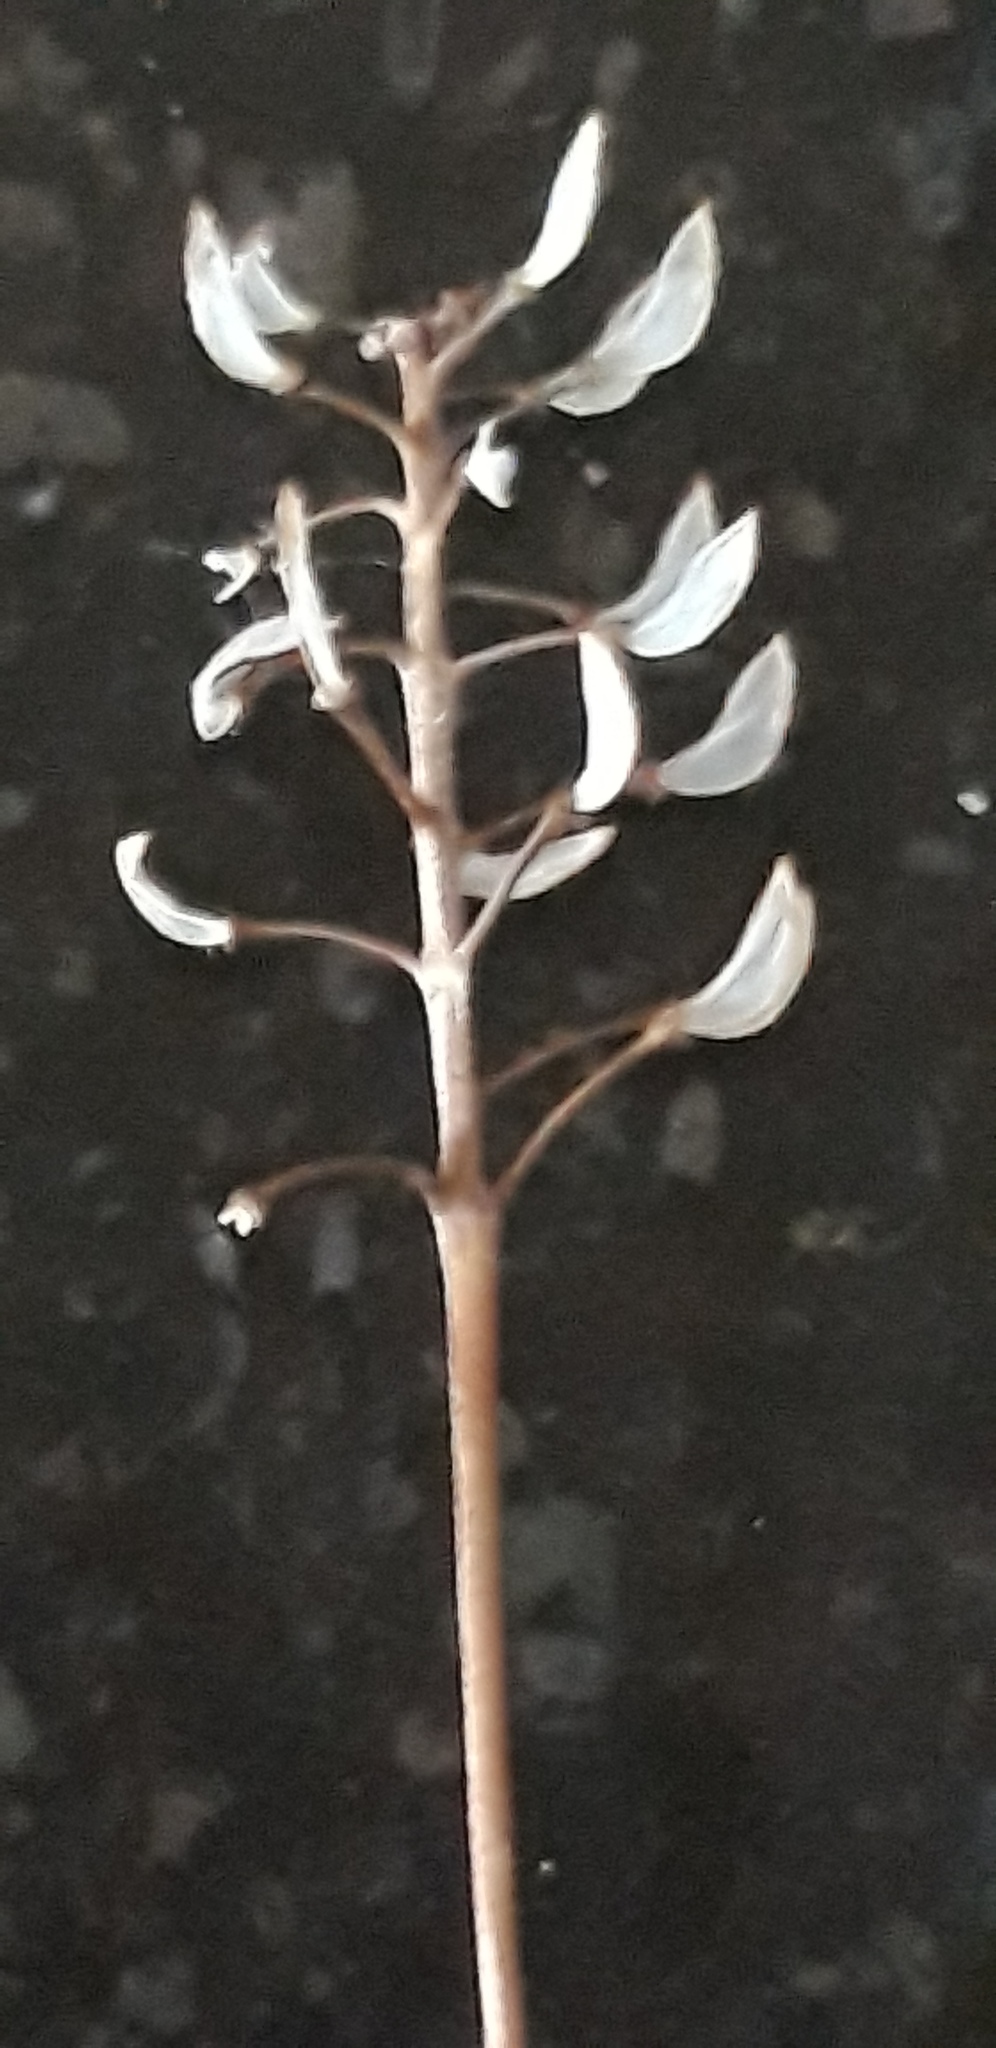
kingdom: Plantae
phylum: Tracheophyta
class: Magnoliopsida
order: Brassicales
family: Brassicaceae
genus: Teesdalia
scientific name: Teesdalia nudicaulis
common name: Shepherd's cress
